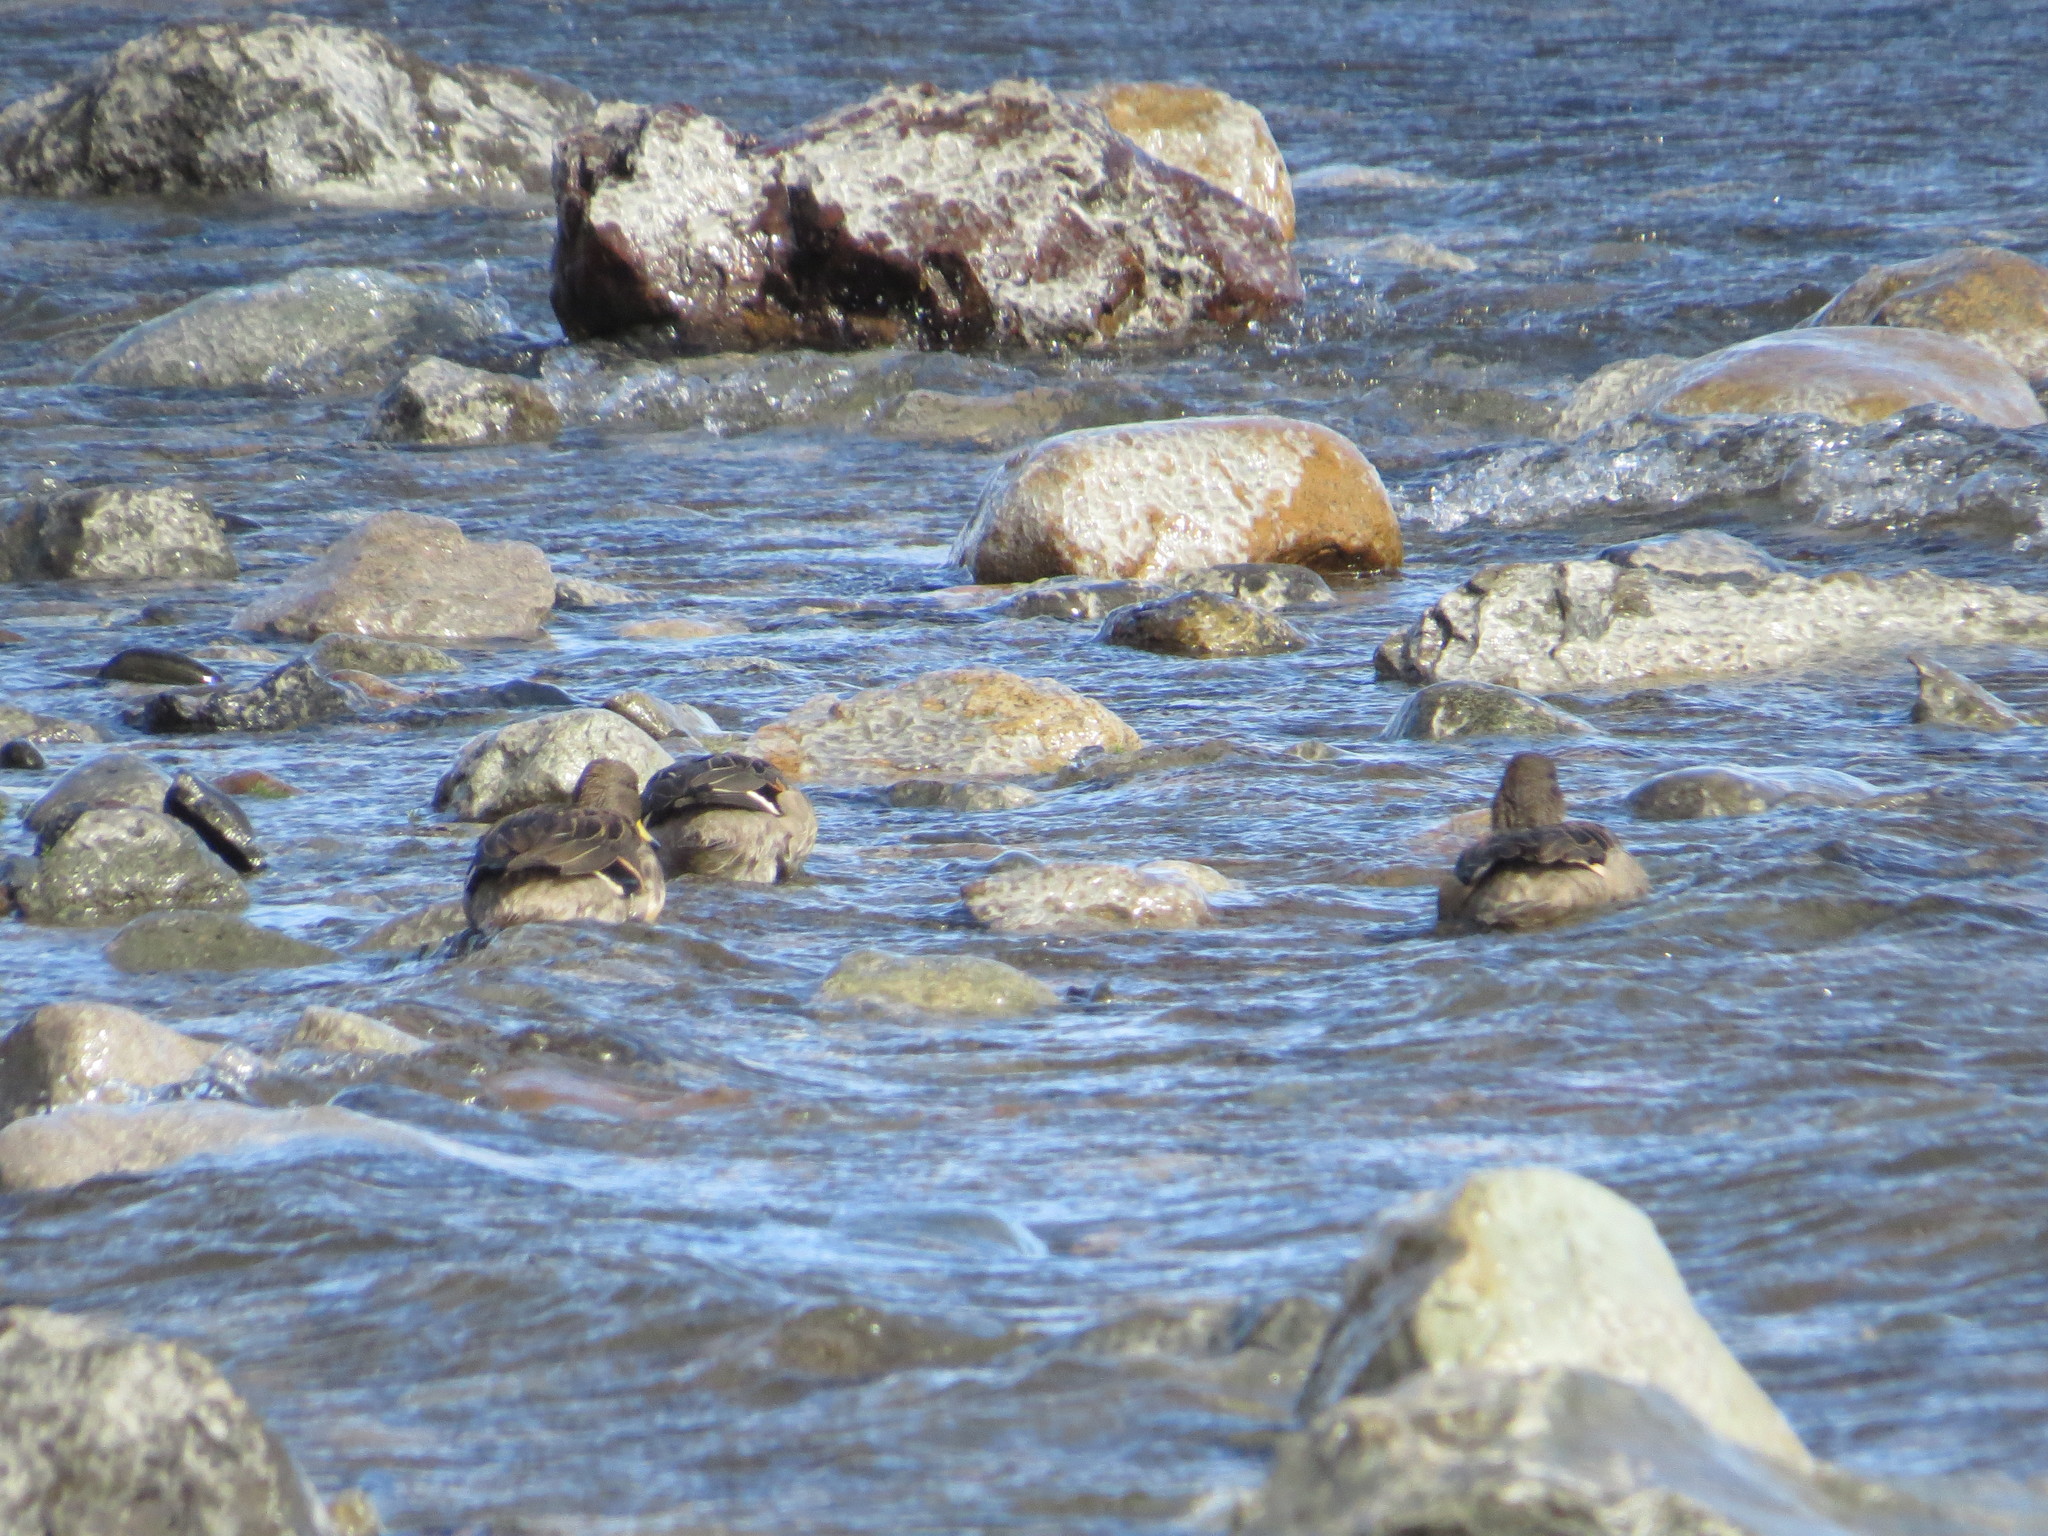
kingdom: Animalia
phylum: Chordata
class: Aves
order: Anseriformes
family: Anatidae
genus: Anas
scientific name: Anas flavirostris
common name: Yellow-billed teal
